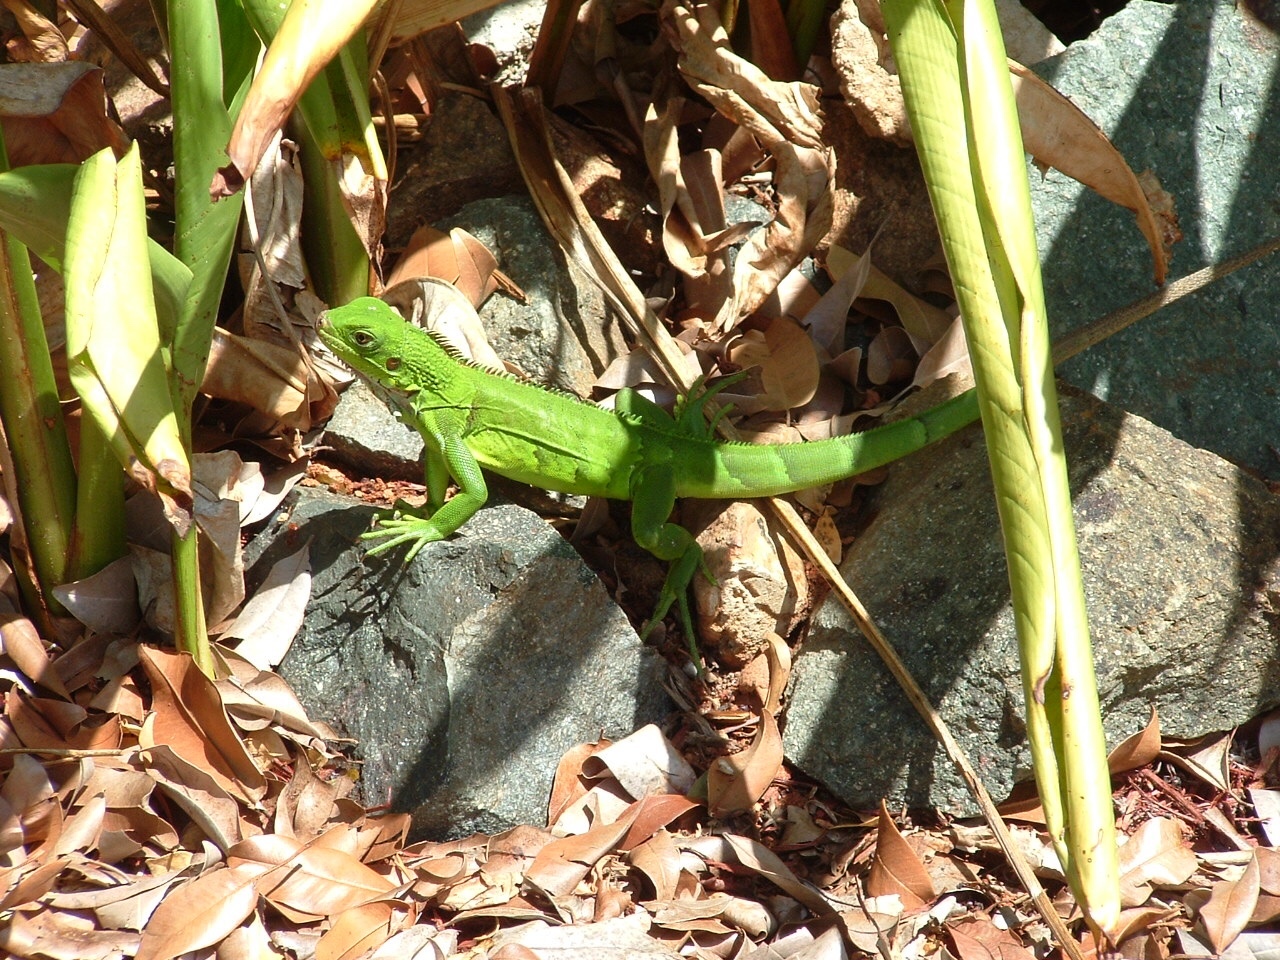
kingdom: Animalia
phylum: Chordata
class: Squamata
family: Iguanidae
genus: Iguana
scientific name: Iguana iguana
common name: Green iguana
